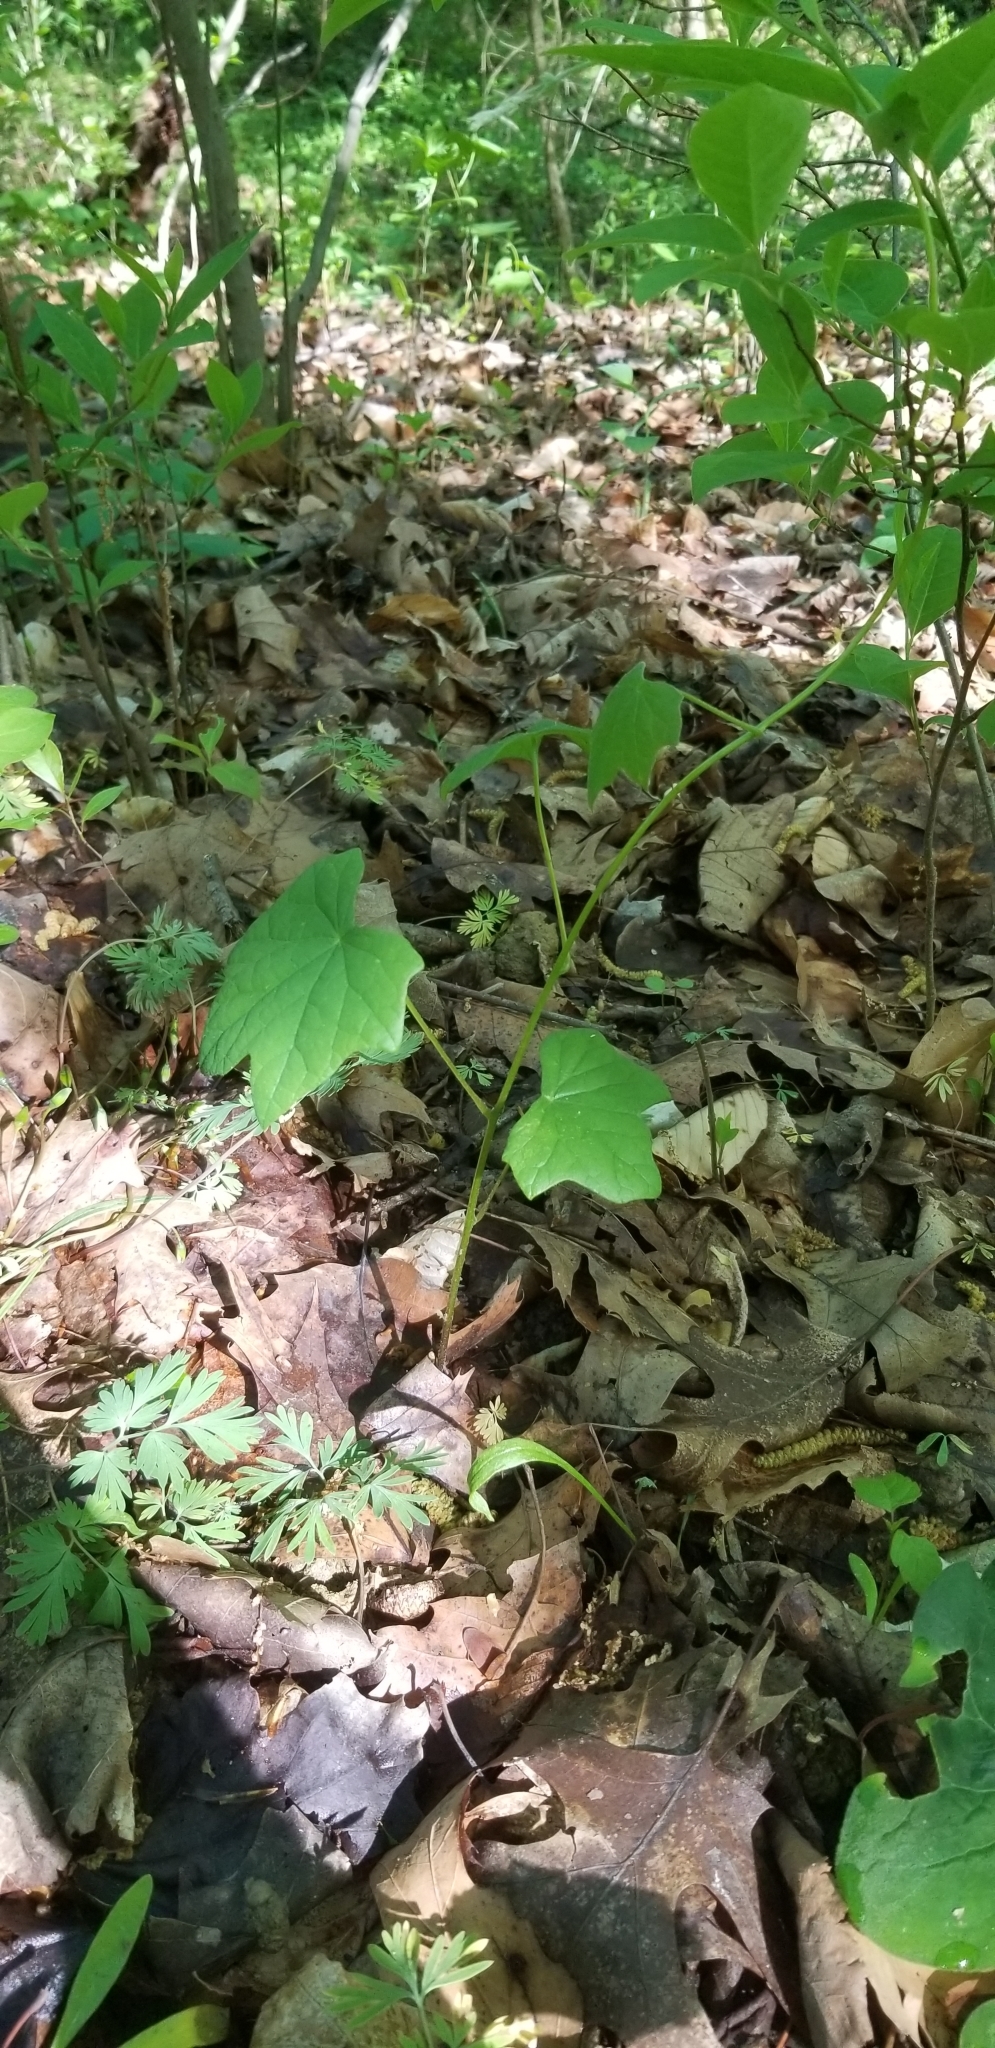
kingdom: Plantae
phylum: Tracheophyta
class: Magnoliopsida
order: Ranunculales
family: Menispermaceae
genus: Menispermum
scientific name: Menispermum canadense
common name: Moonseed
